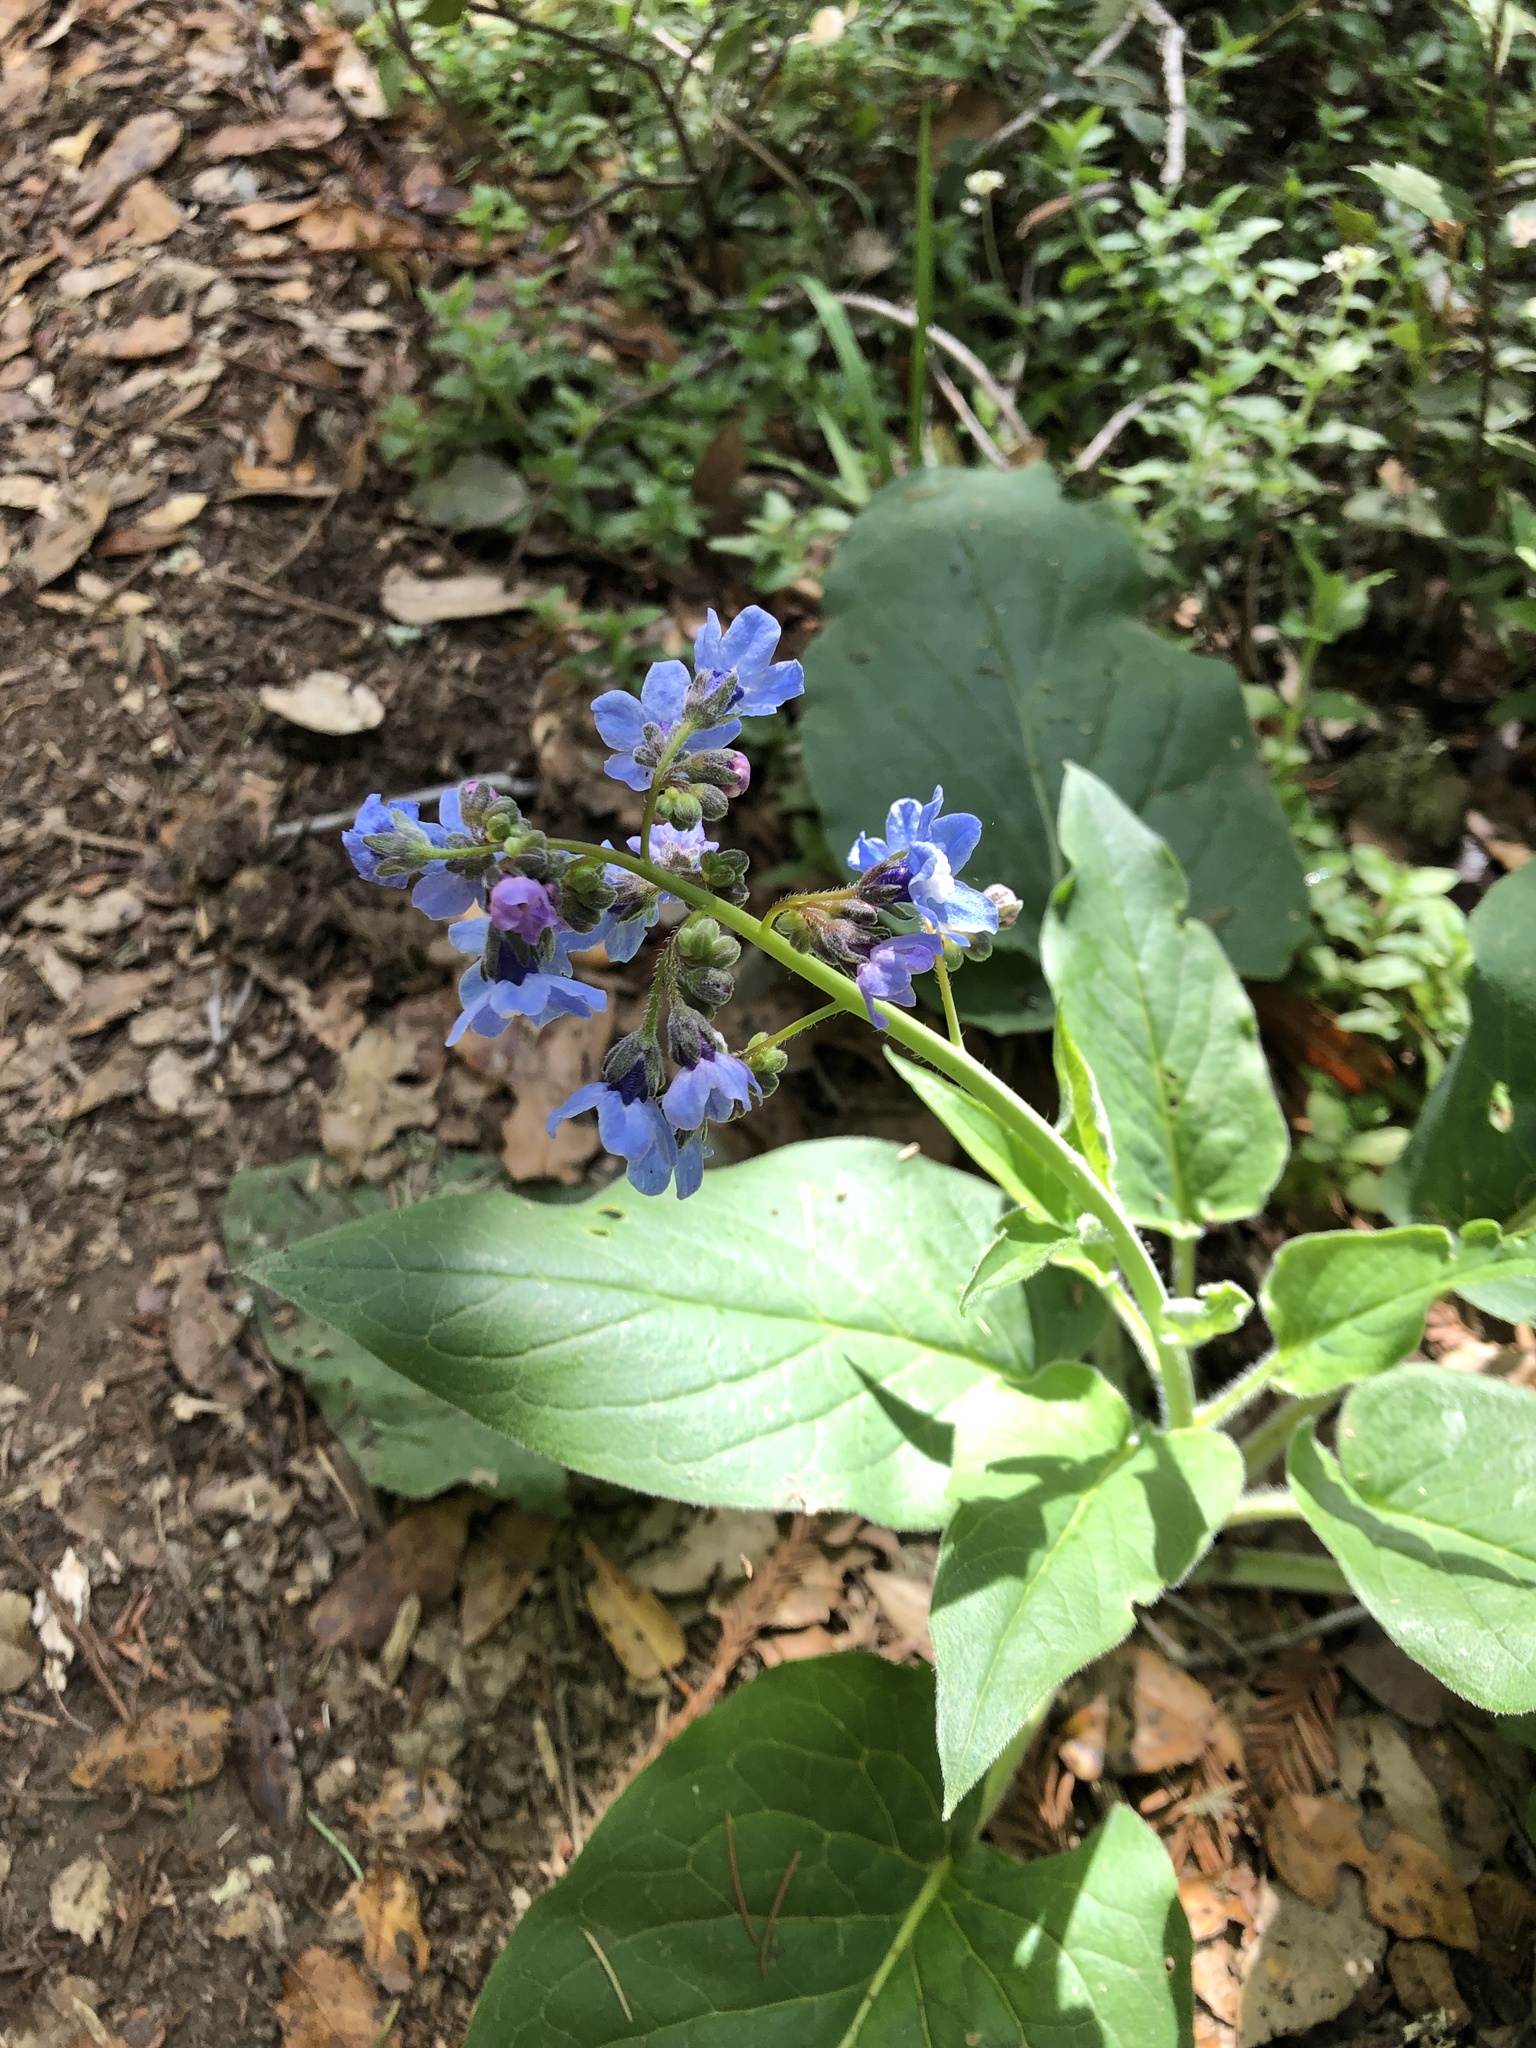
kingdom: Plantae
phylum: Tracheophyta
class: Magnoliopsida
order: Boraginales
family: Boraginaceae
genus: Adelinia
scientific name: Adelinia grande
